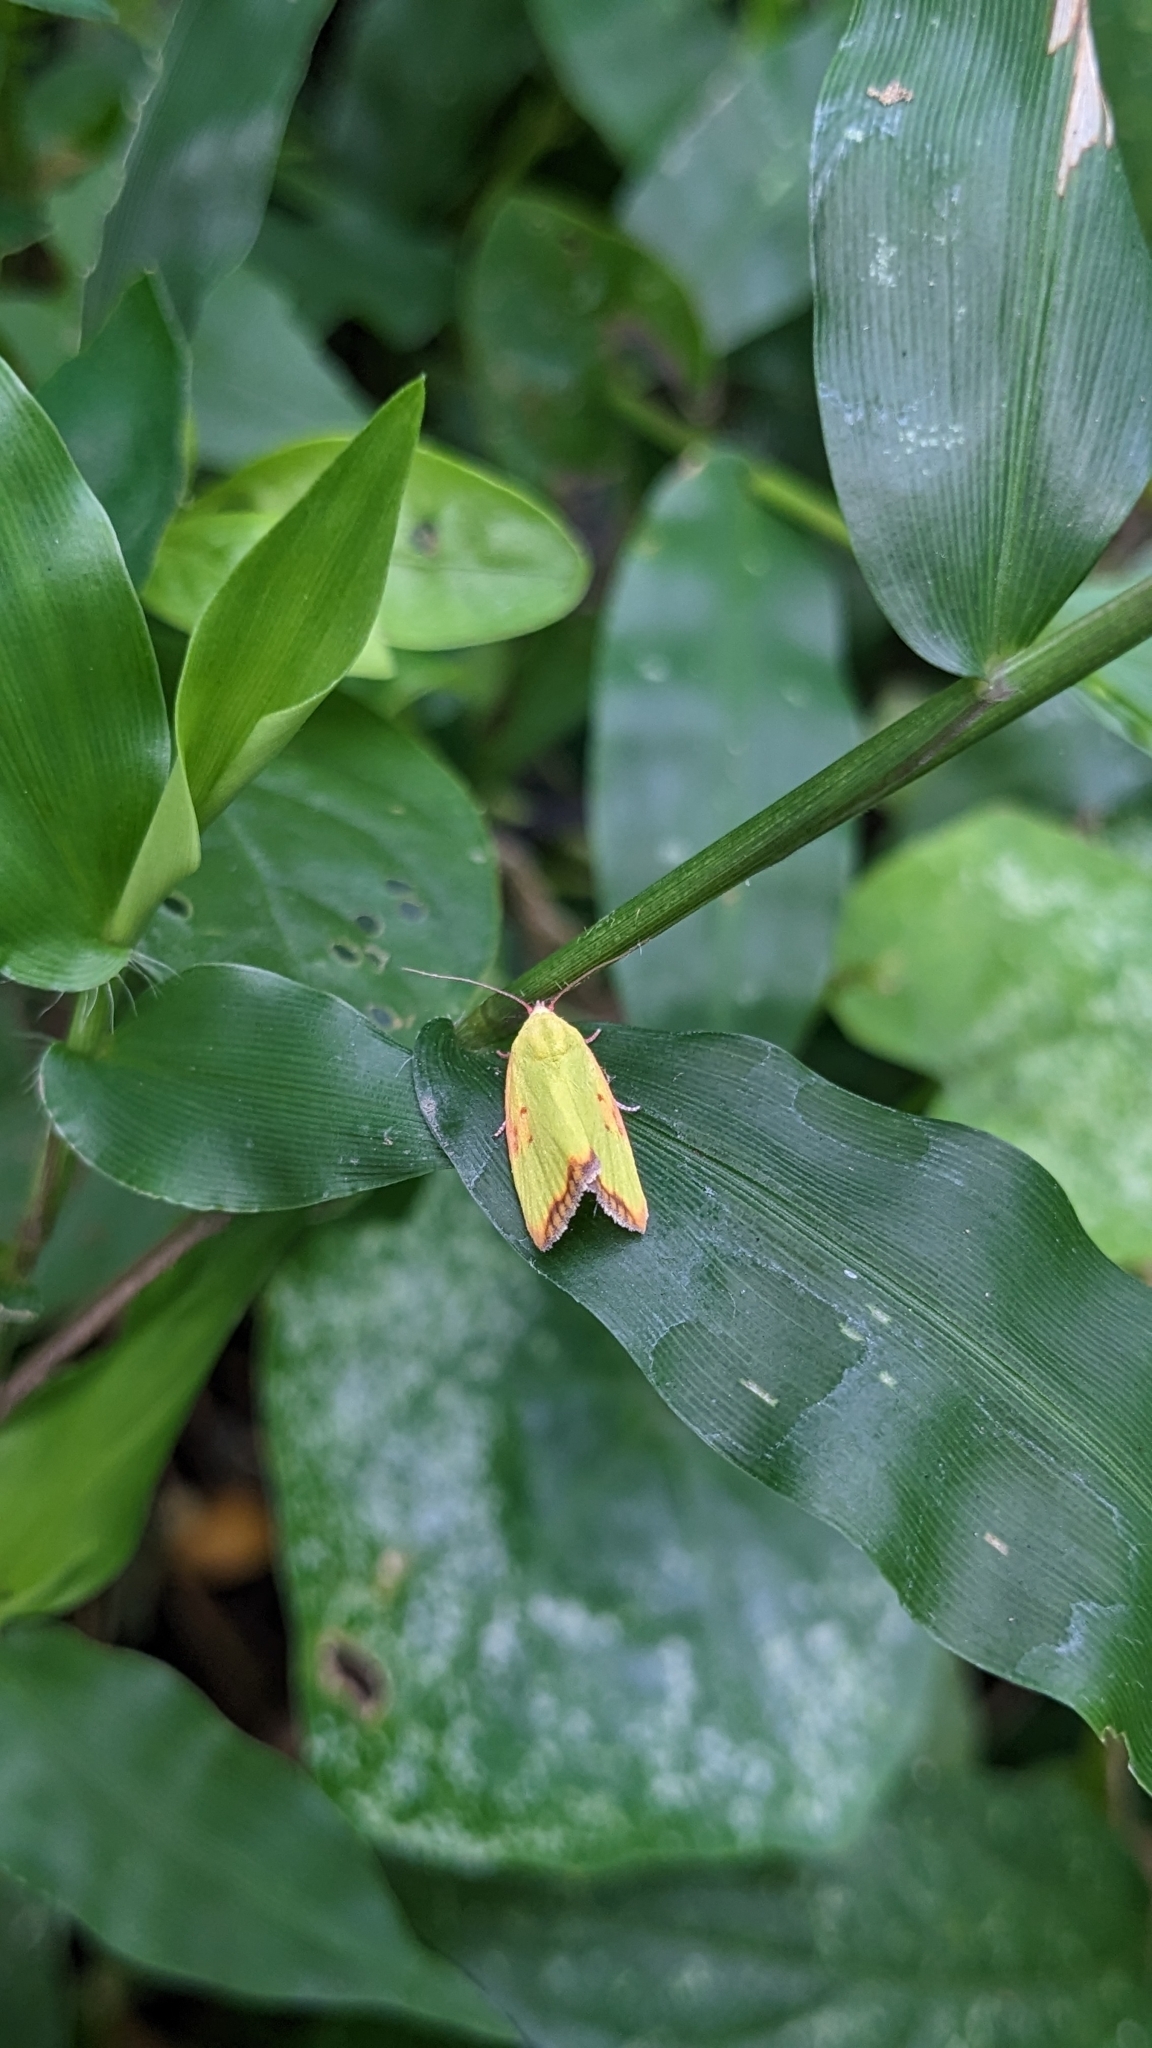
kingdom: Animalia
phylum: Arthropoda
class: Insecta
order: Lepidoptera
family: Nolidae
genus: Earias
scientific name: Earias cupreoviridis
